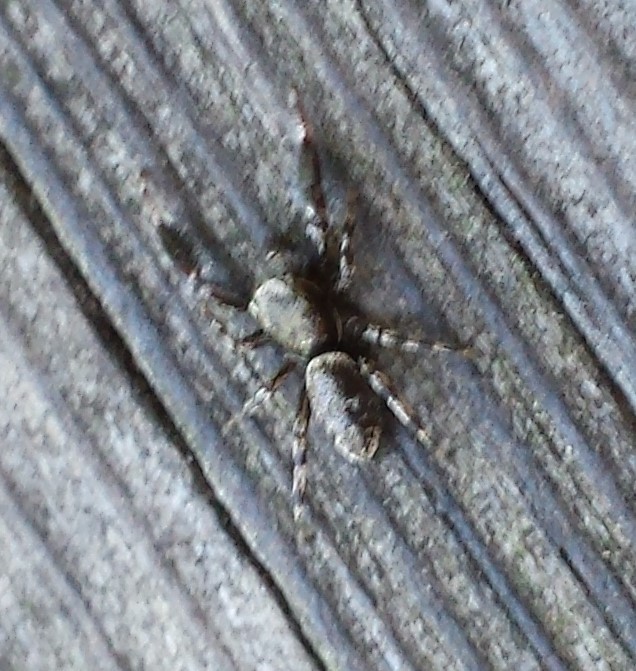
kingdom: Animalia
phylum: Arthropoda
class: Arachnida
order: Araneae
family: Salticidae
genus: Tutelina
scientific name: Tutelina harti
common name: Hart's jumping spider
